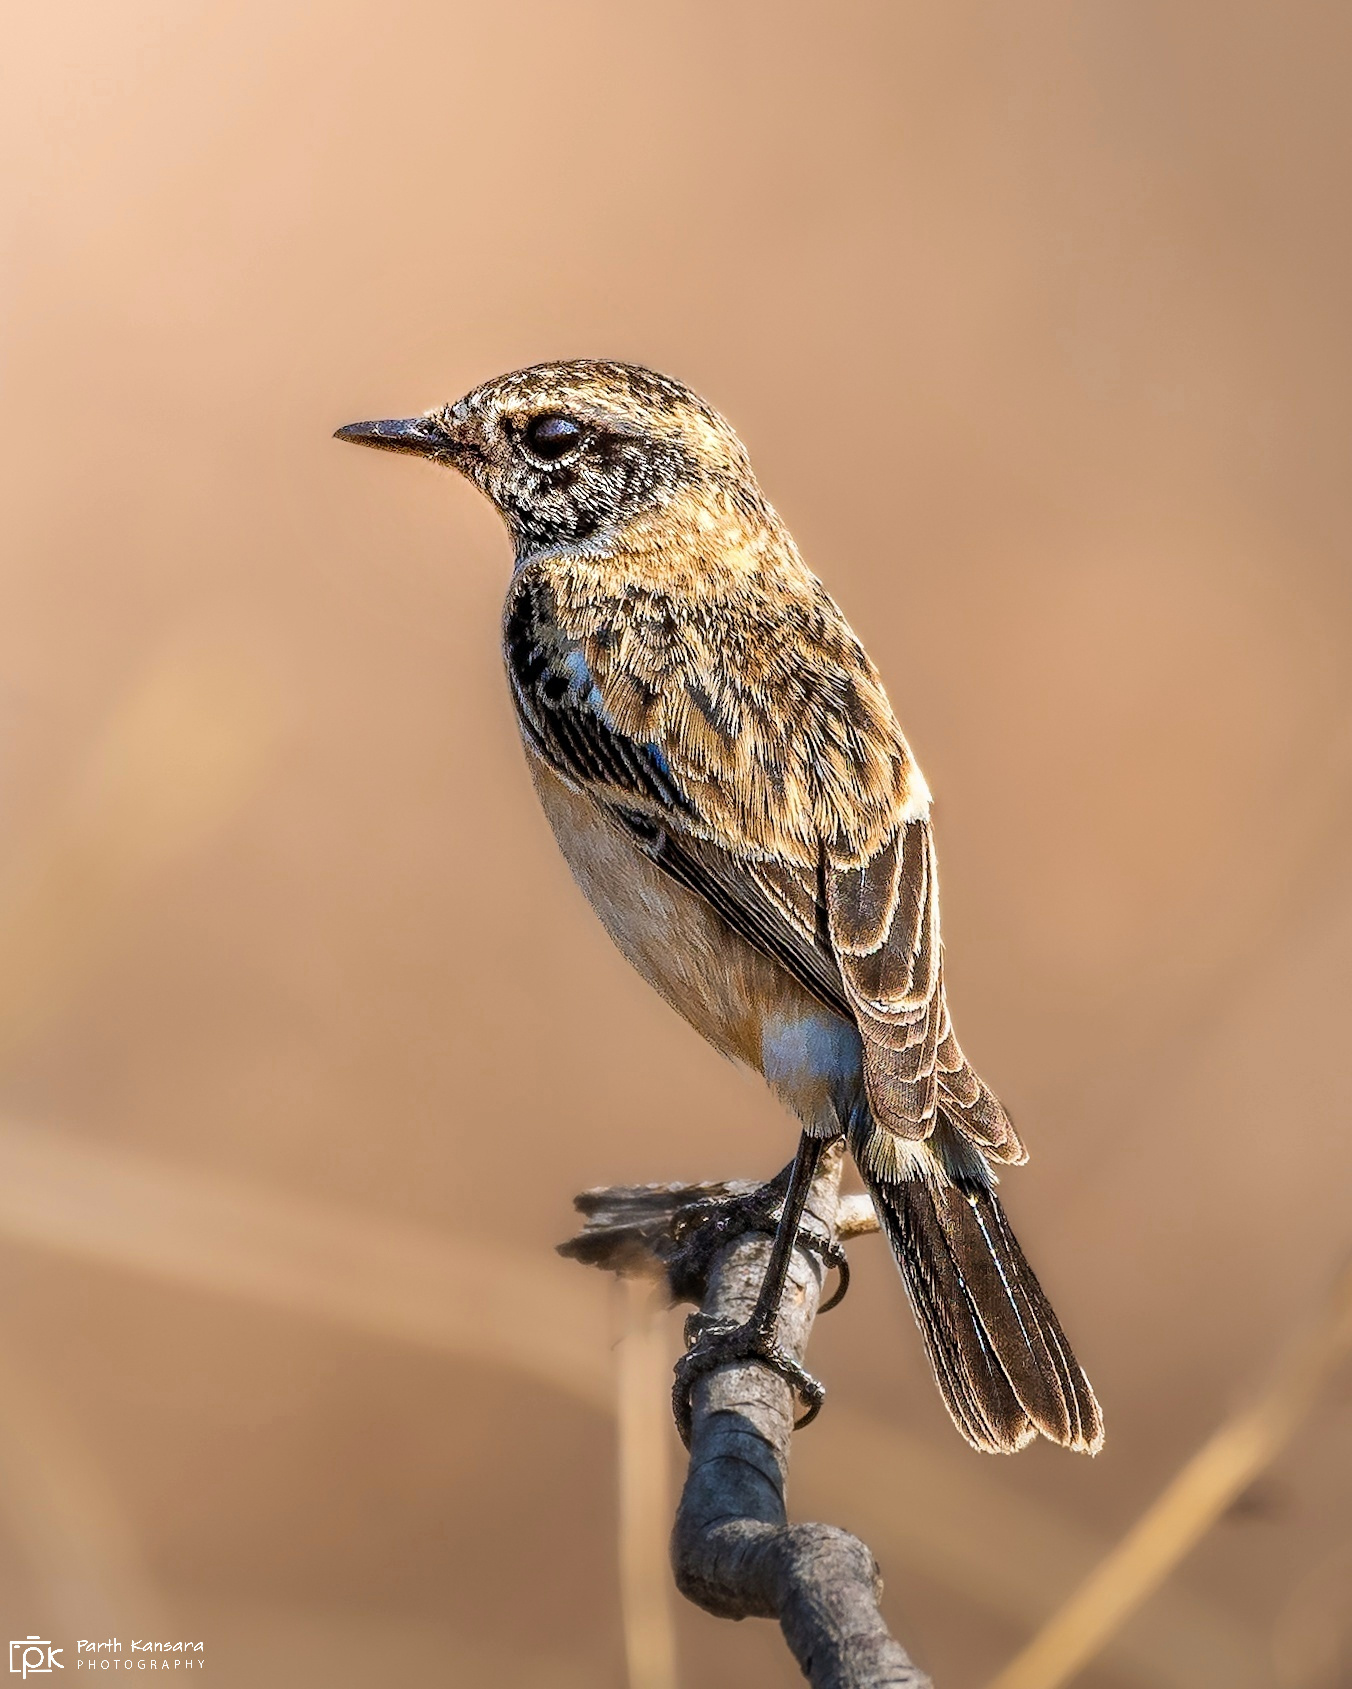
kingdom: Animalia
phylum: Chordata
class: Aves
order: Passeriformes
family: Muscicapidae
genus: Saxicola
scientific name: Saxicola maurus
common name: Siberian stonechat
